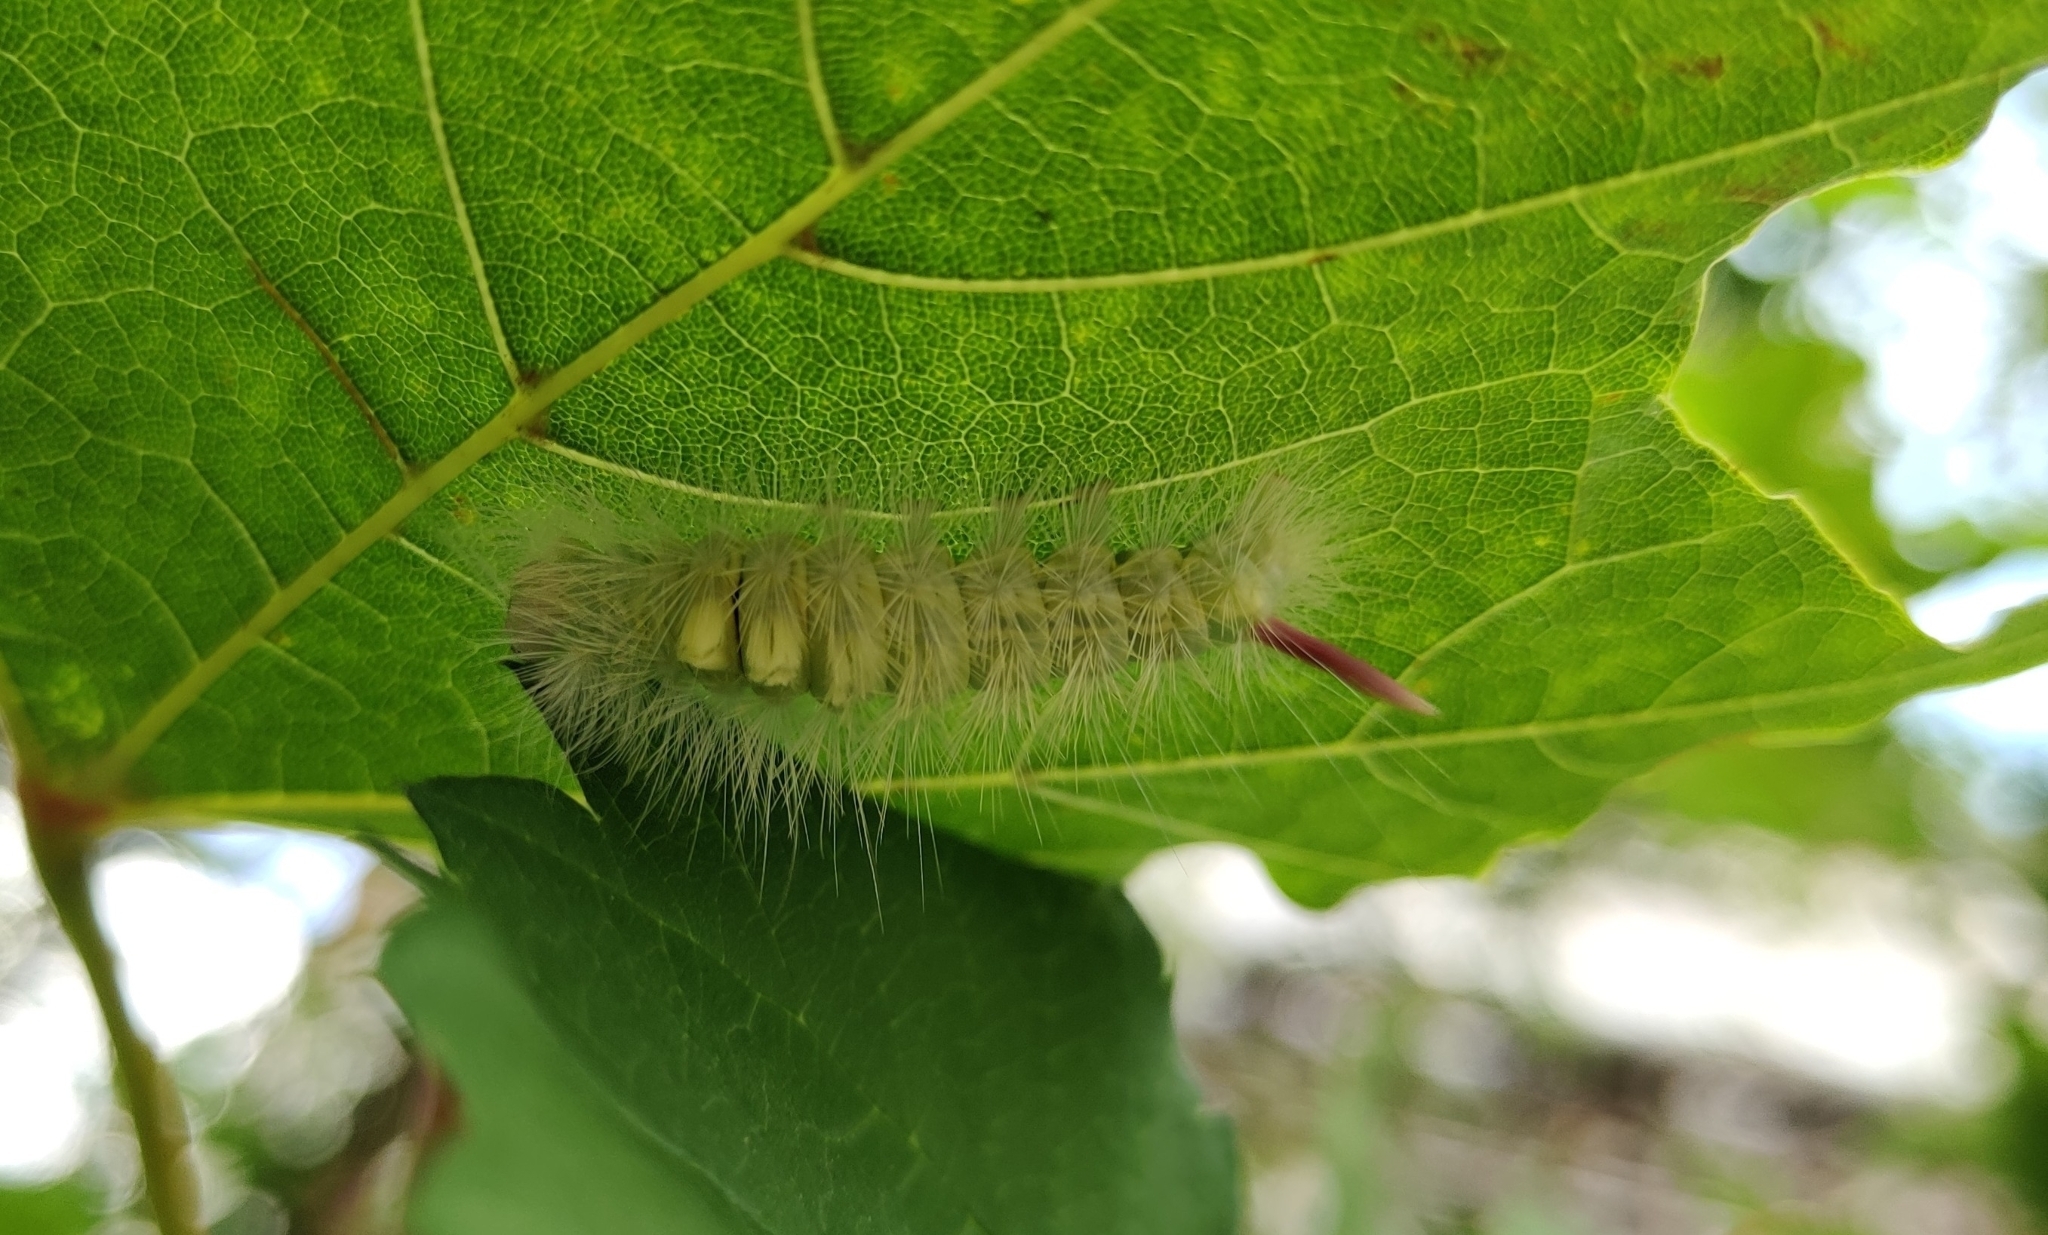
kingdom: Animalia
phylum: Arthropoda
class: Insecta
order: Lepidoptera
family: Erebidae
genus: Calliteara
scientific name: Calliteara pudibunda
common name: Pale tussock
